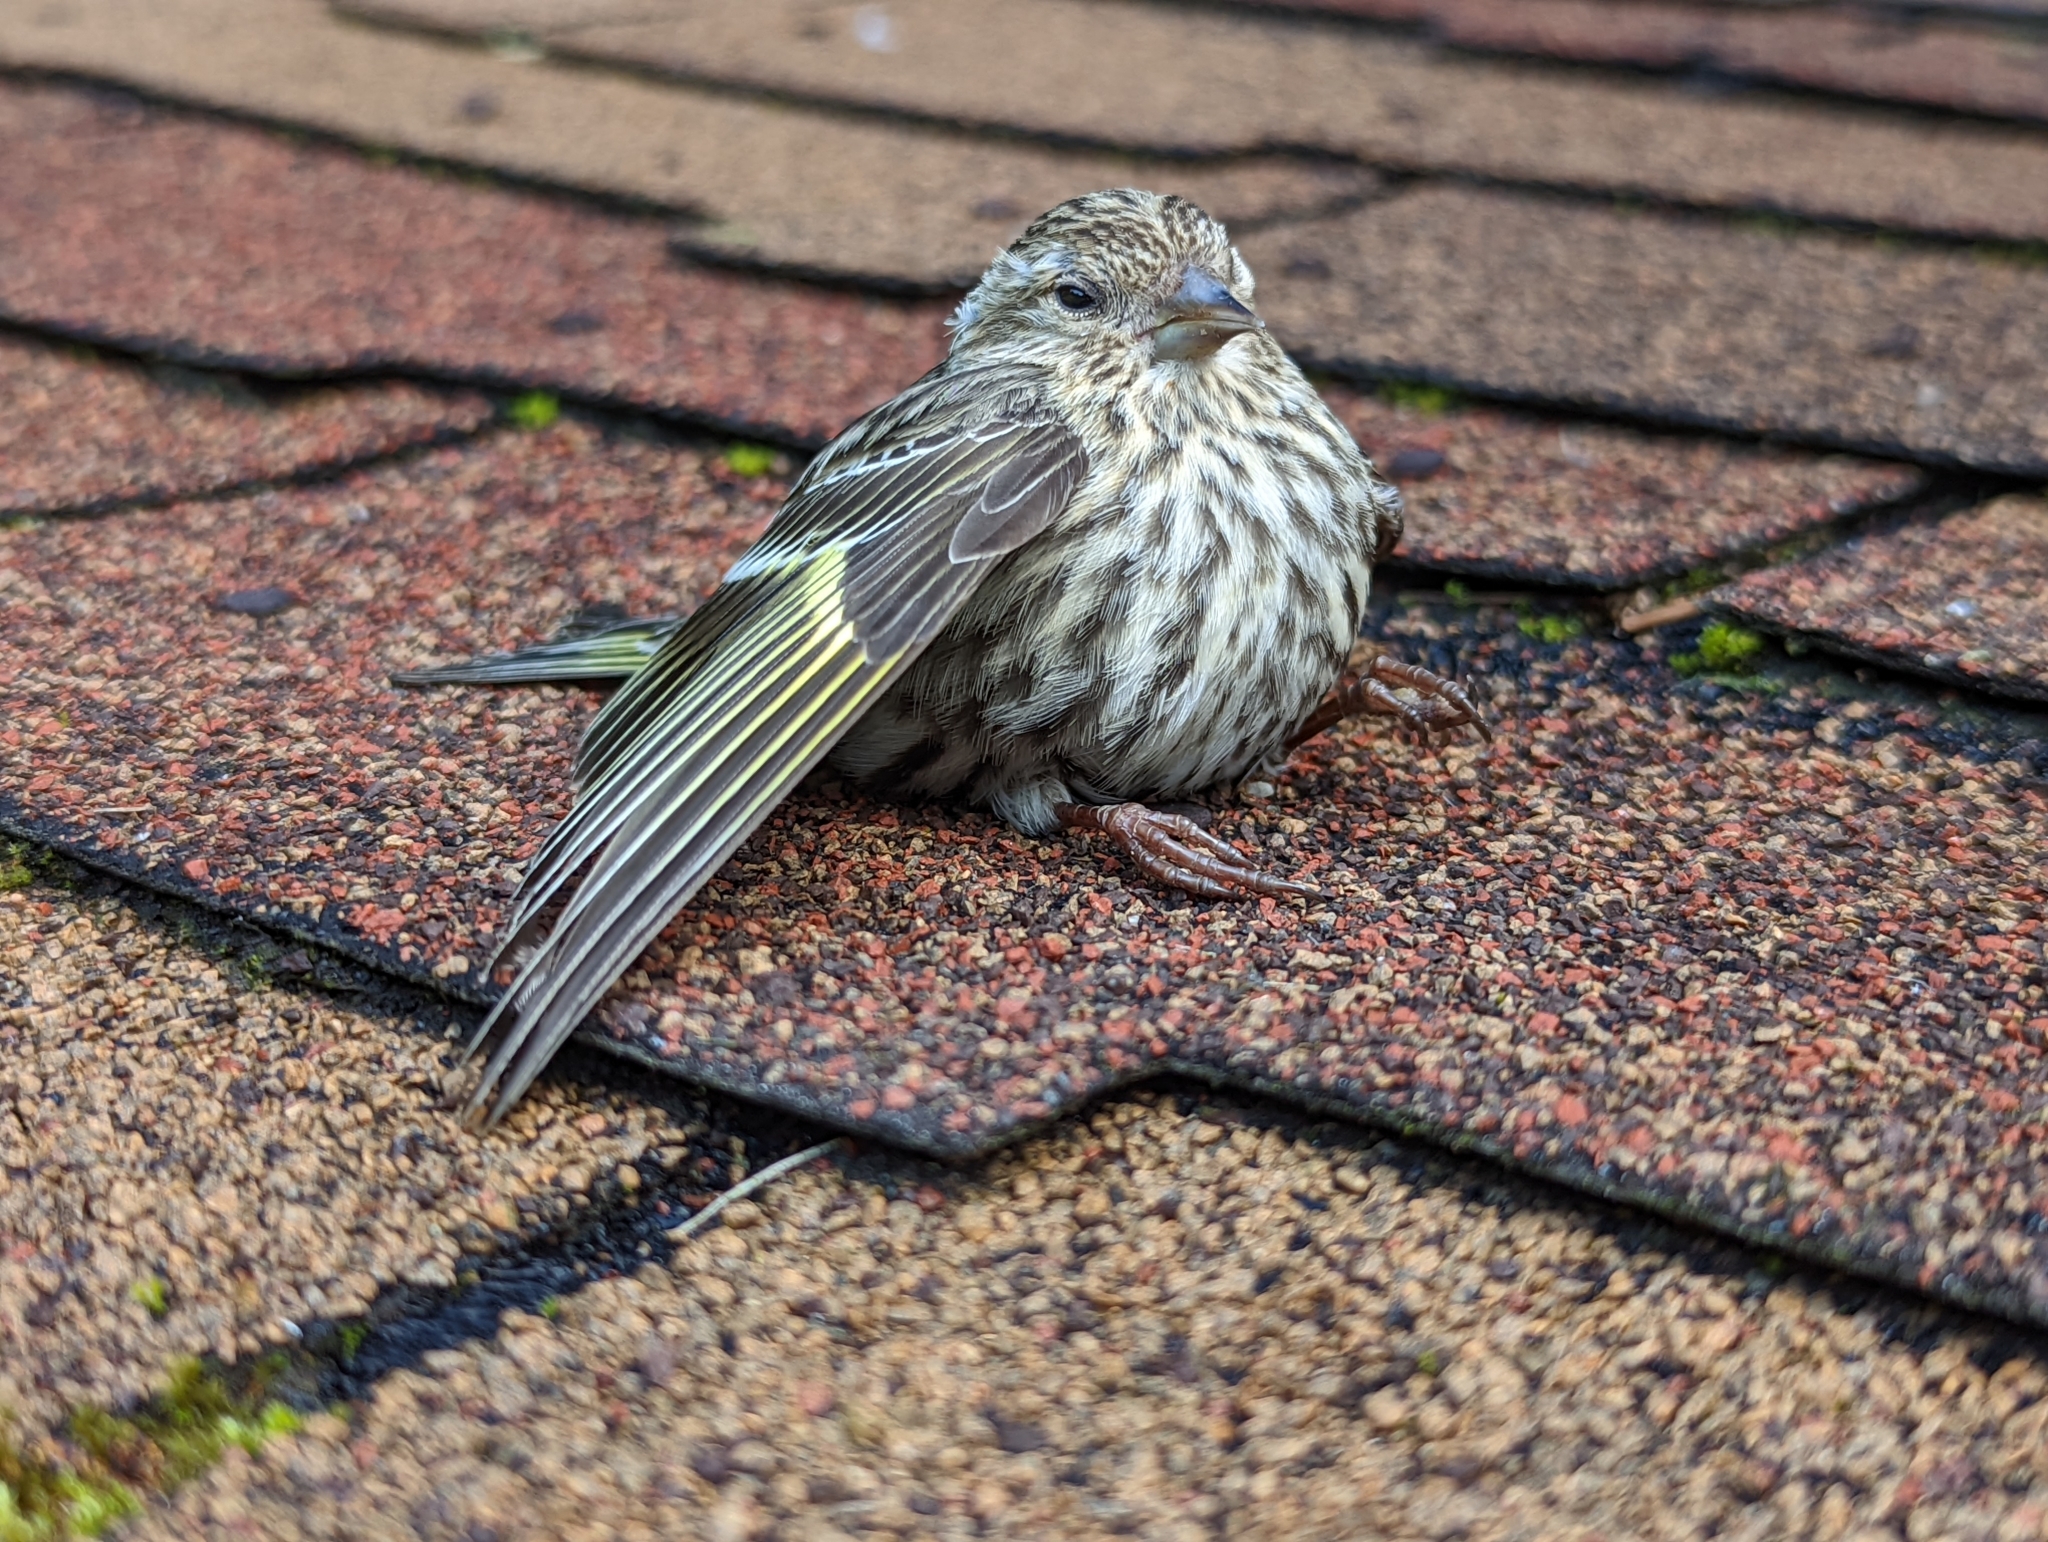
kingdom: Animalia
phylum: Chordata
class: Aves
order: Passeriformes
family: Fringillidae
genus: Spinus
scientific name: Spinus pinus
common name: Pine siskin
